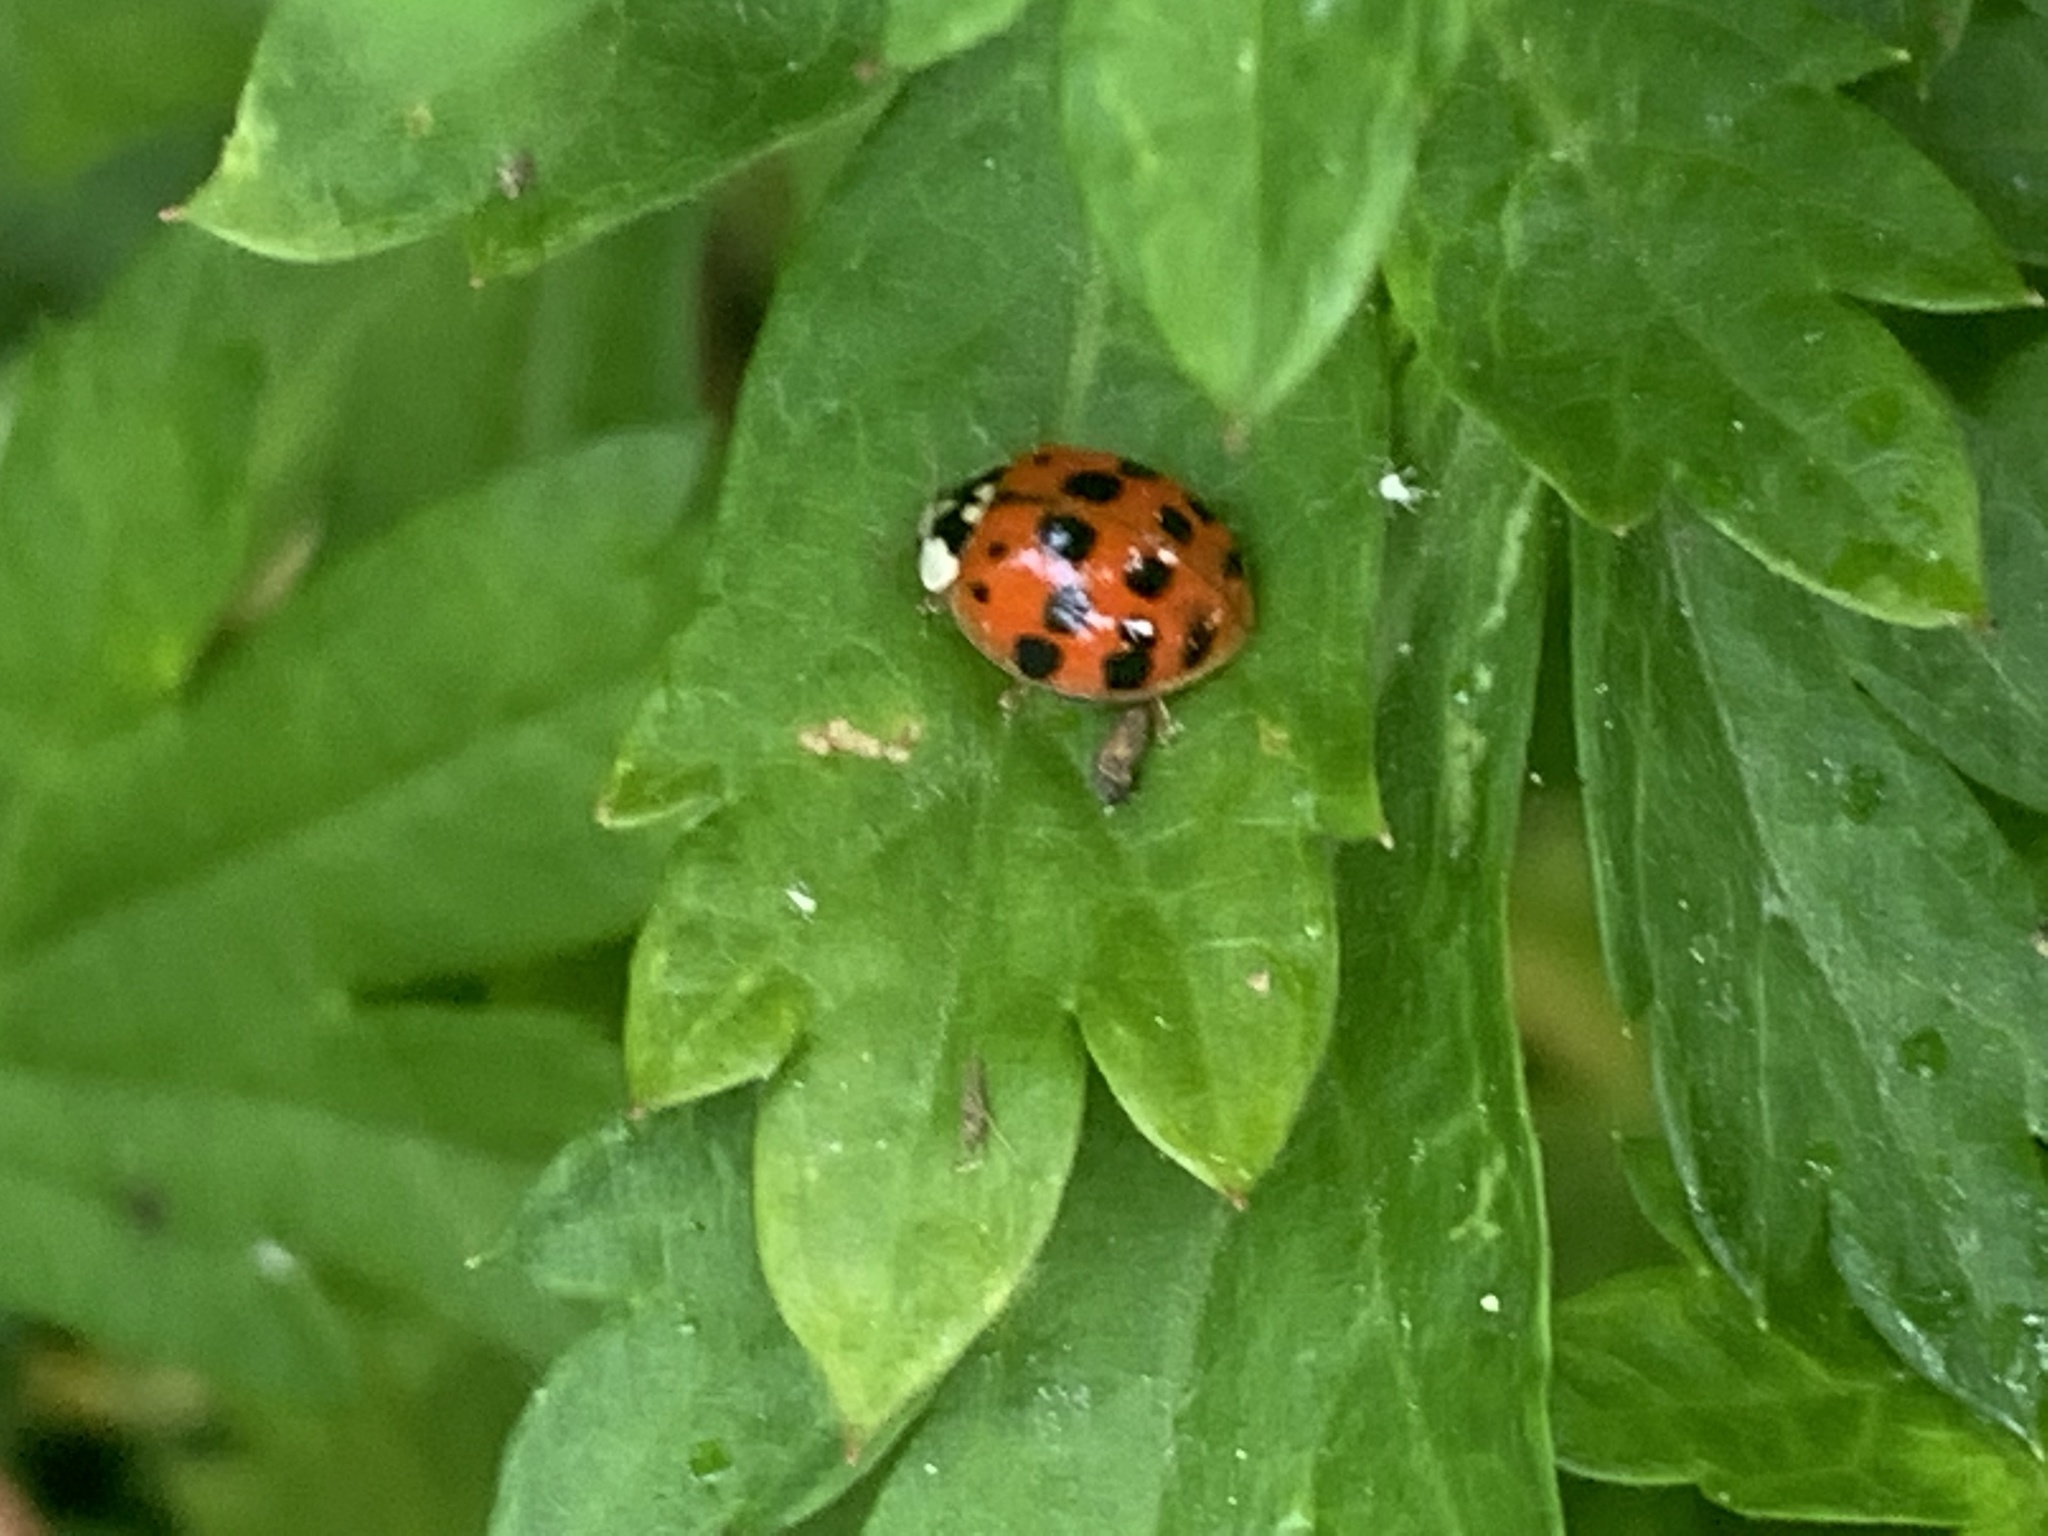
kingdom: Animalia
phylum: Arthropoda
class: Insecta
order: Coleoptera
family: Coccinellidae
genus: Harmonia
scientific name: Harmonia axyridis
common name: Harlequin ladybird
